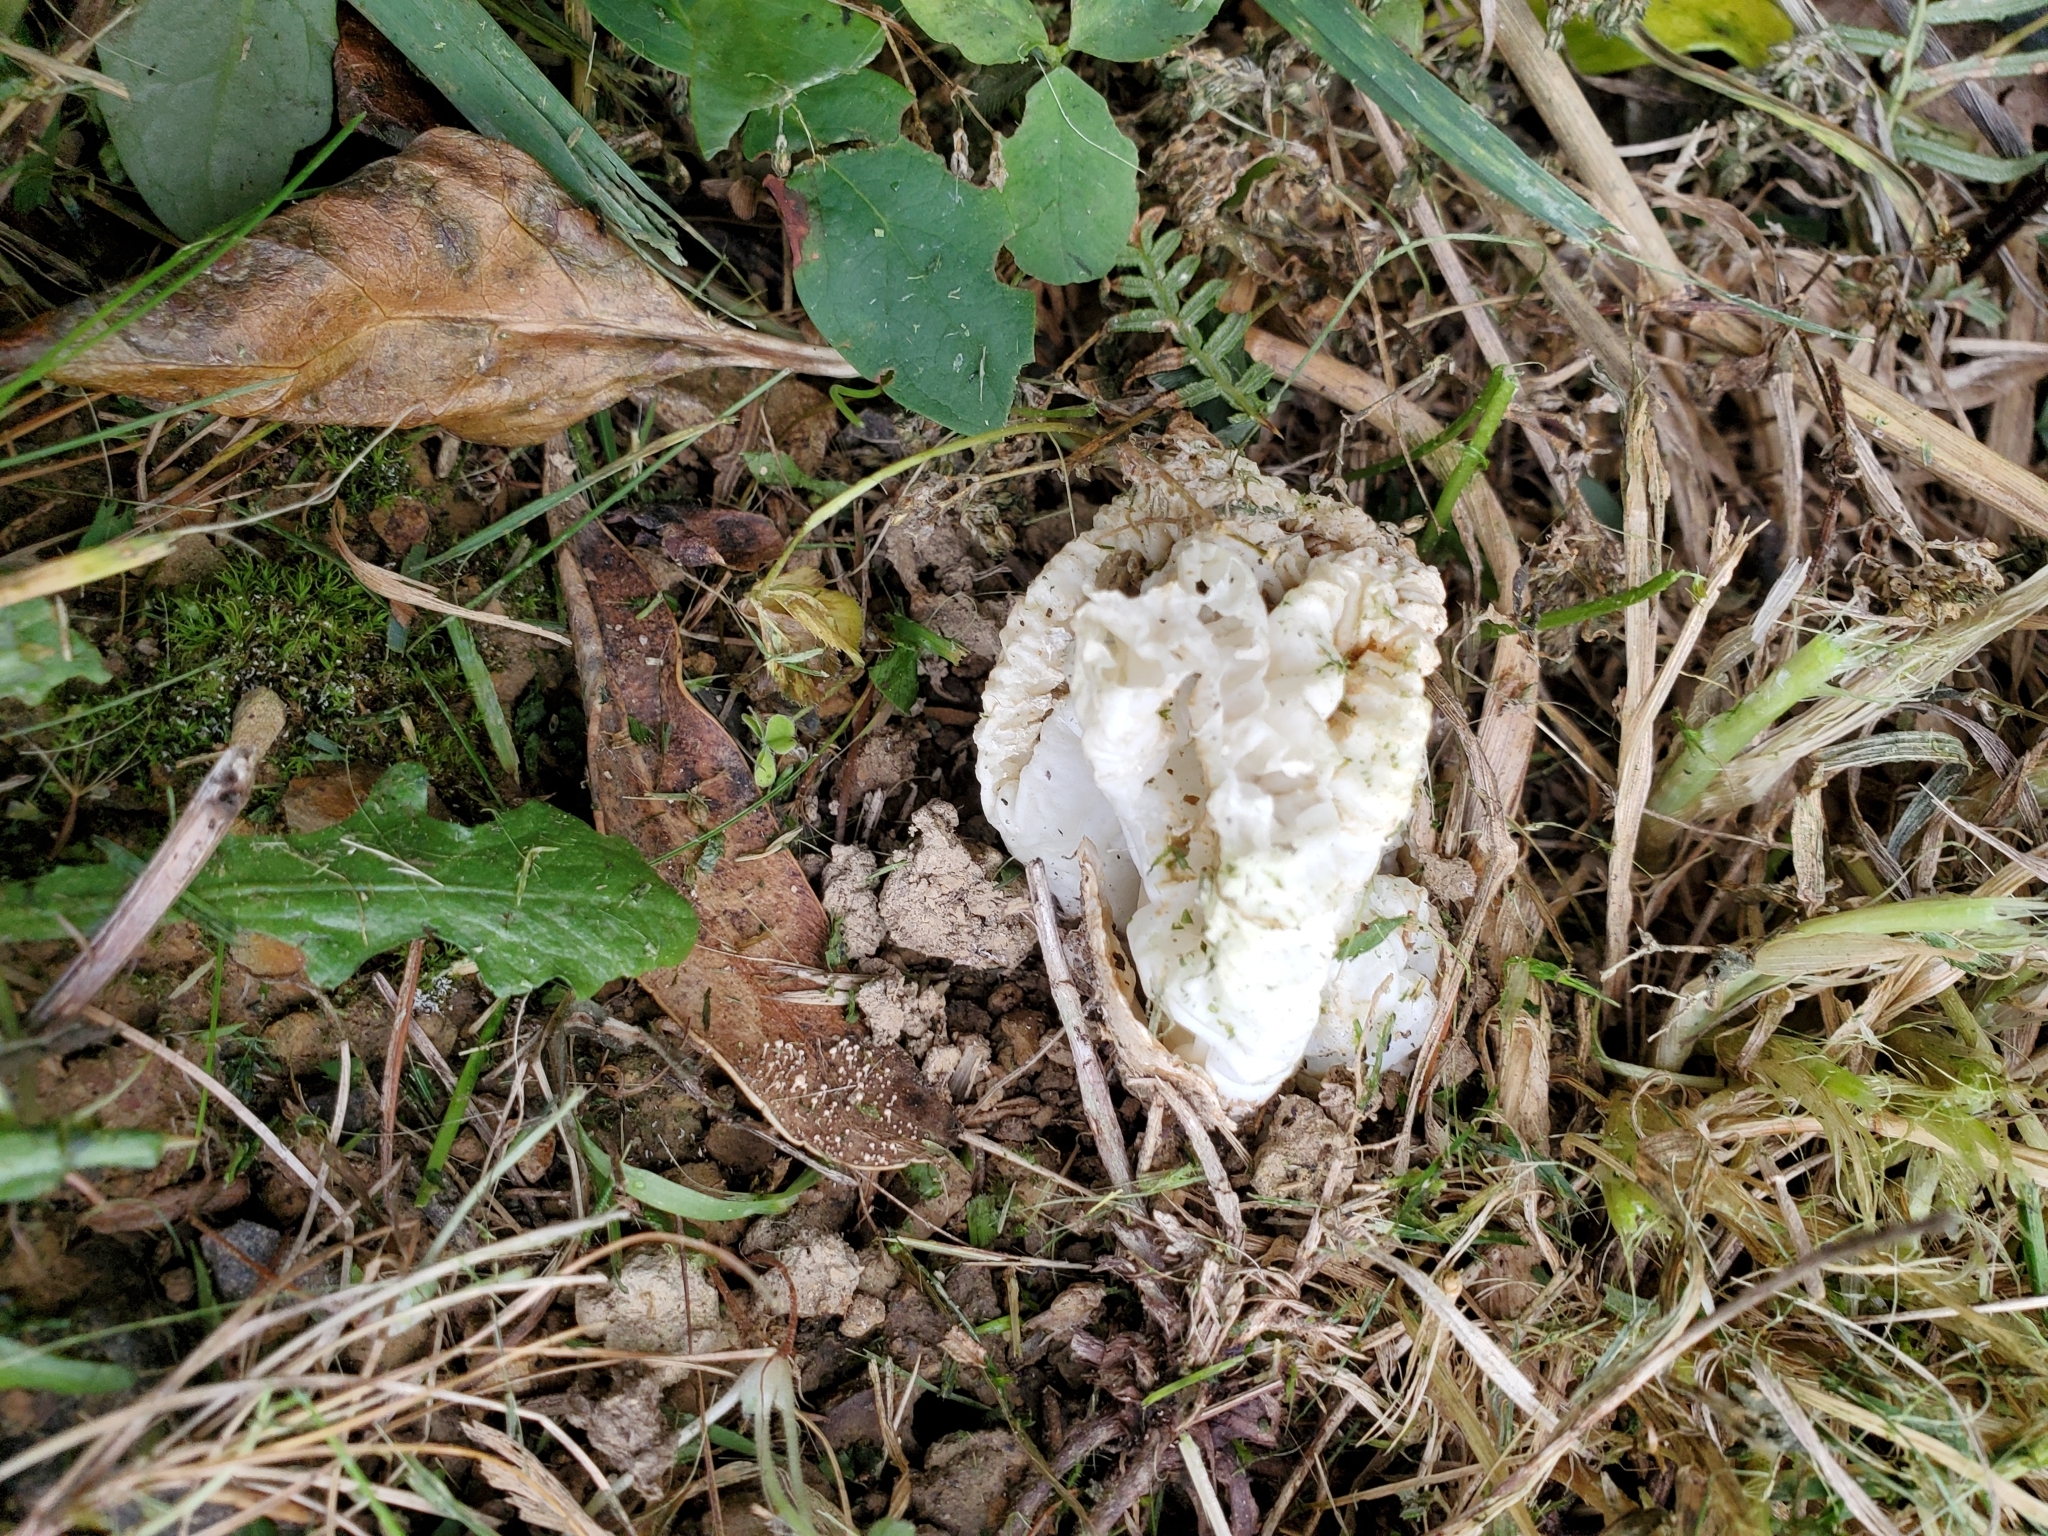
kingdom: Fungi
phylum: Basidiomycota
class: Agaricomycetes
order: Phallales
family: Phallaceae
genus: Ileodictyon
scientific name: Ileodictyon cibarium
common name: Basket fungus
